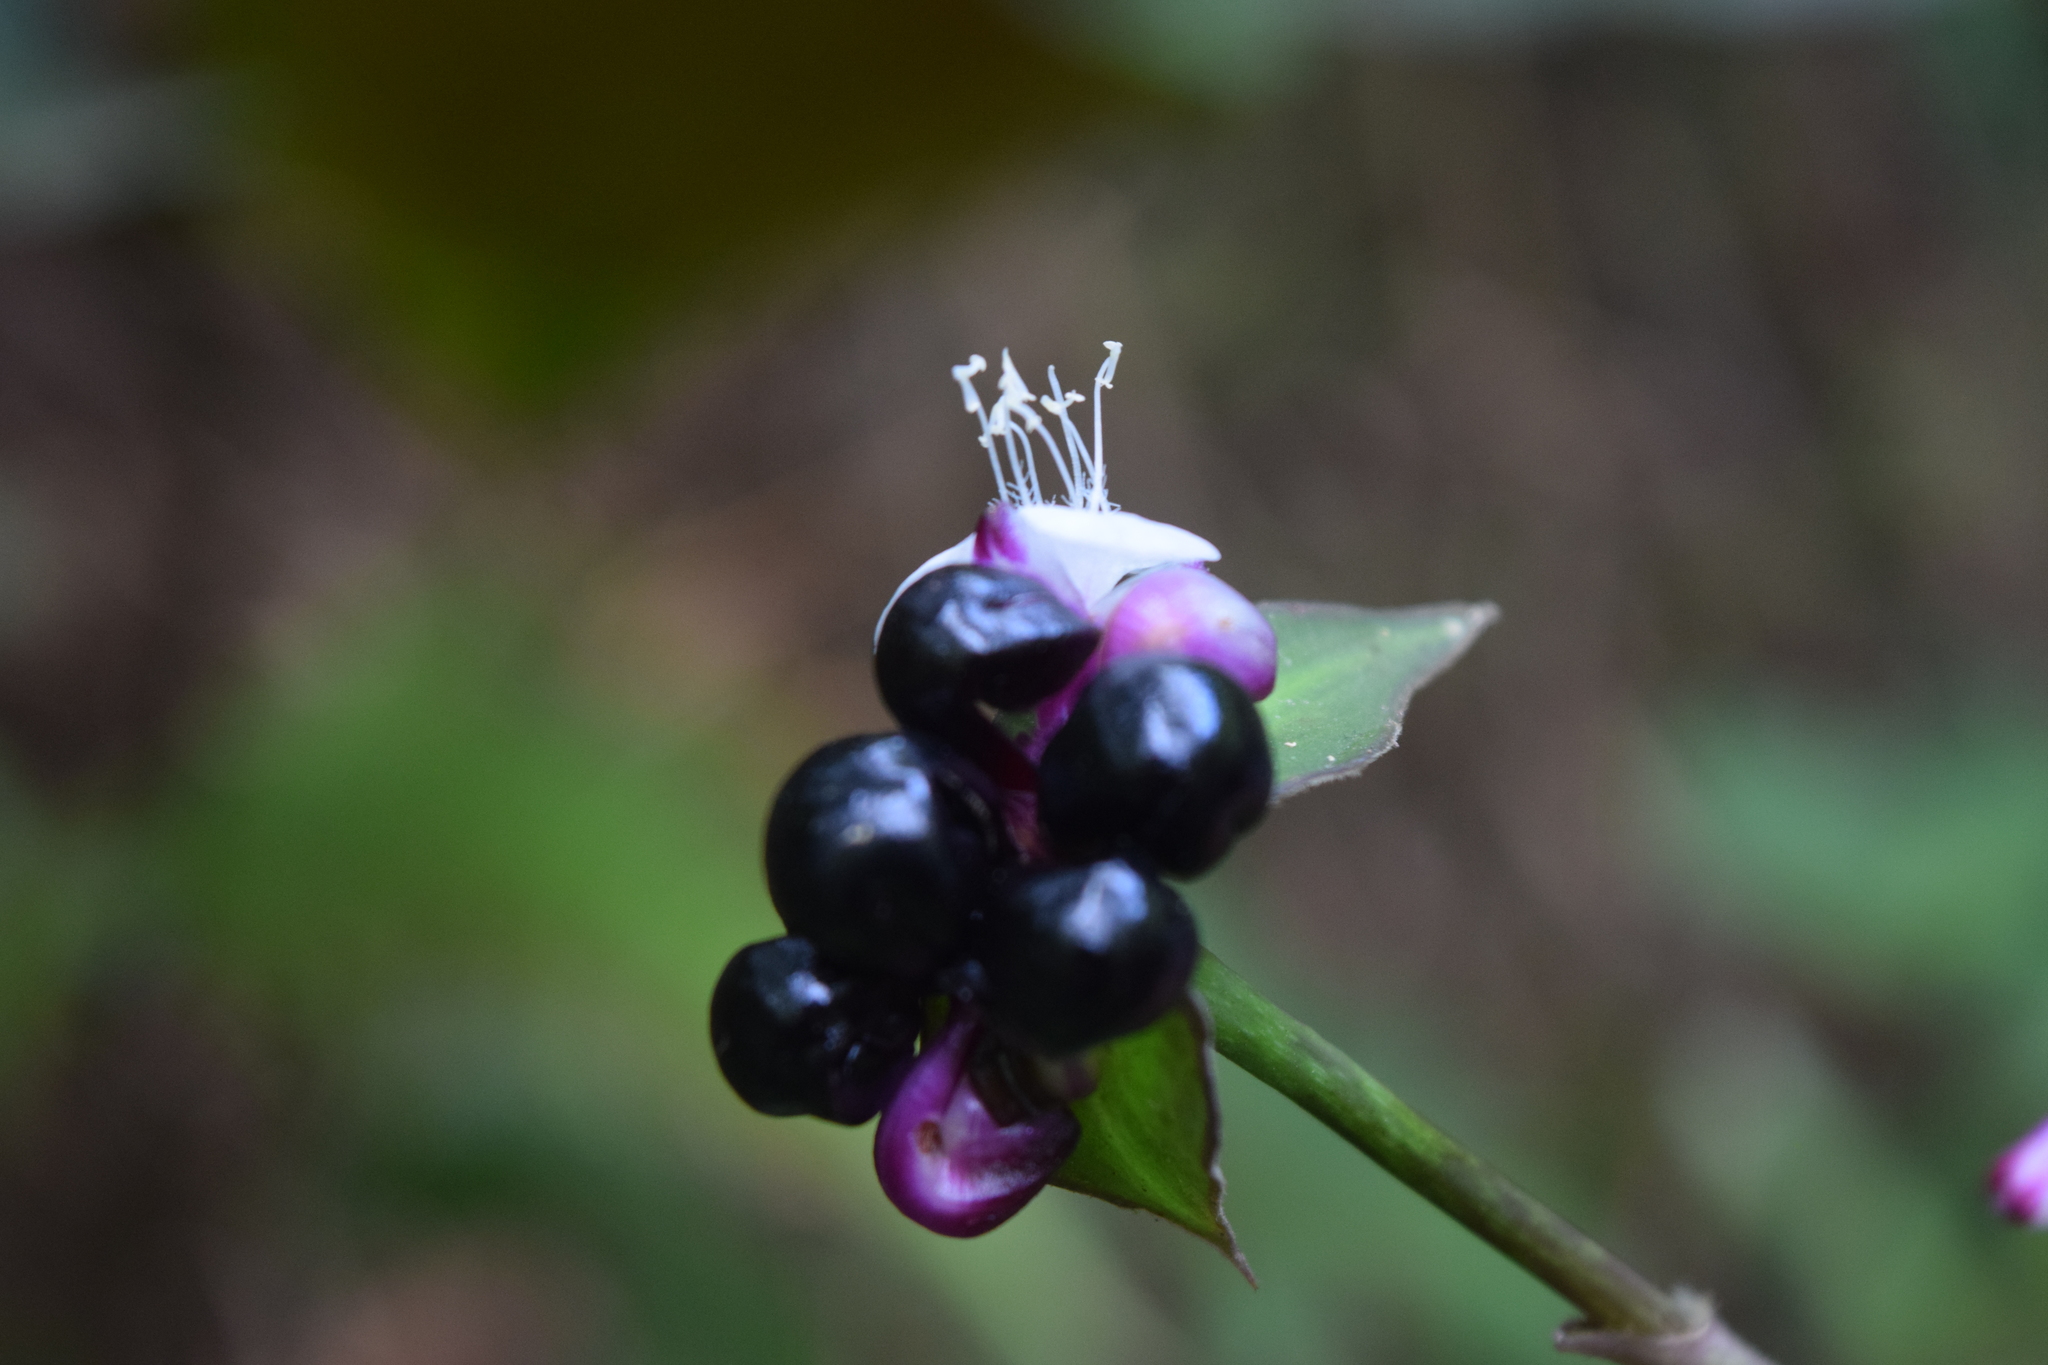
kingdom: Plantae
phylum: Tracheophyta
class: Liliopsida
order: Commelinales
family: Commelinaceae
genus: Tradescantia
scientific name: Tradescantia zanonia
